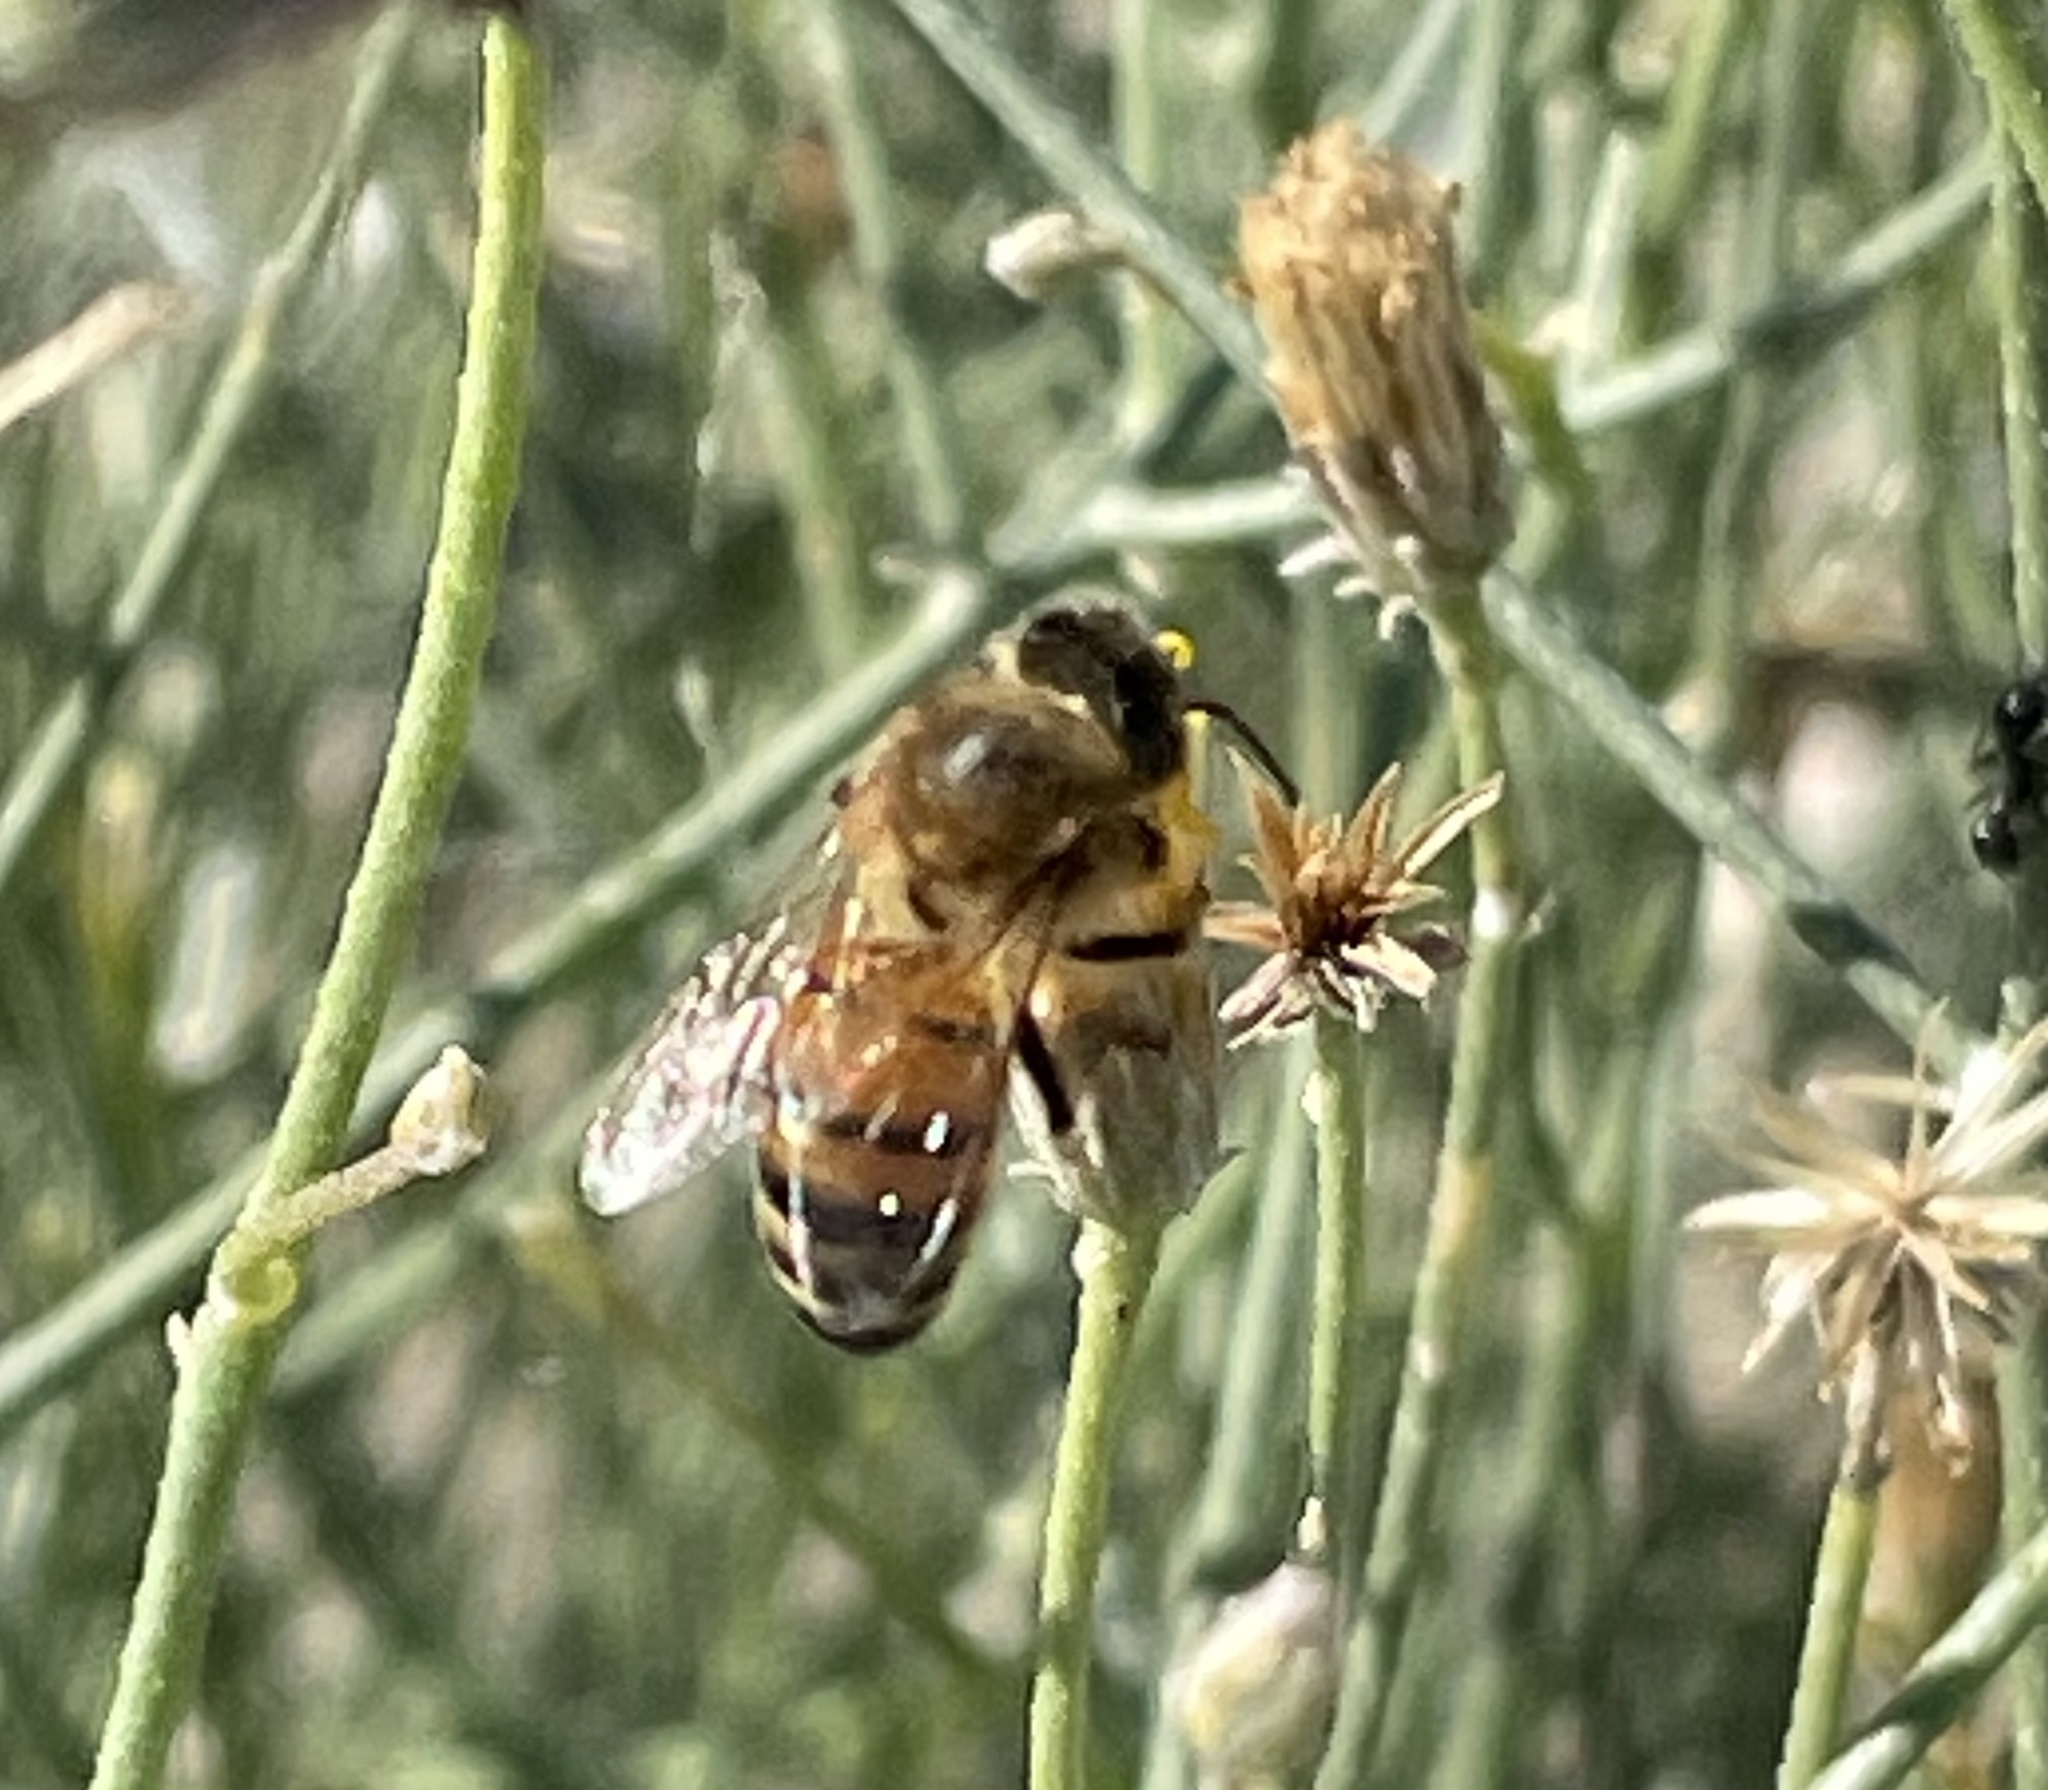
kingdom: Plantae
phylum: Tracheophyta
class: Magnoliopsida
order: Asterales
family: Asteraceae
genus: Bebbia
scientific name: Bebbia juncea
